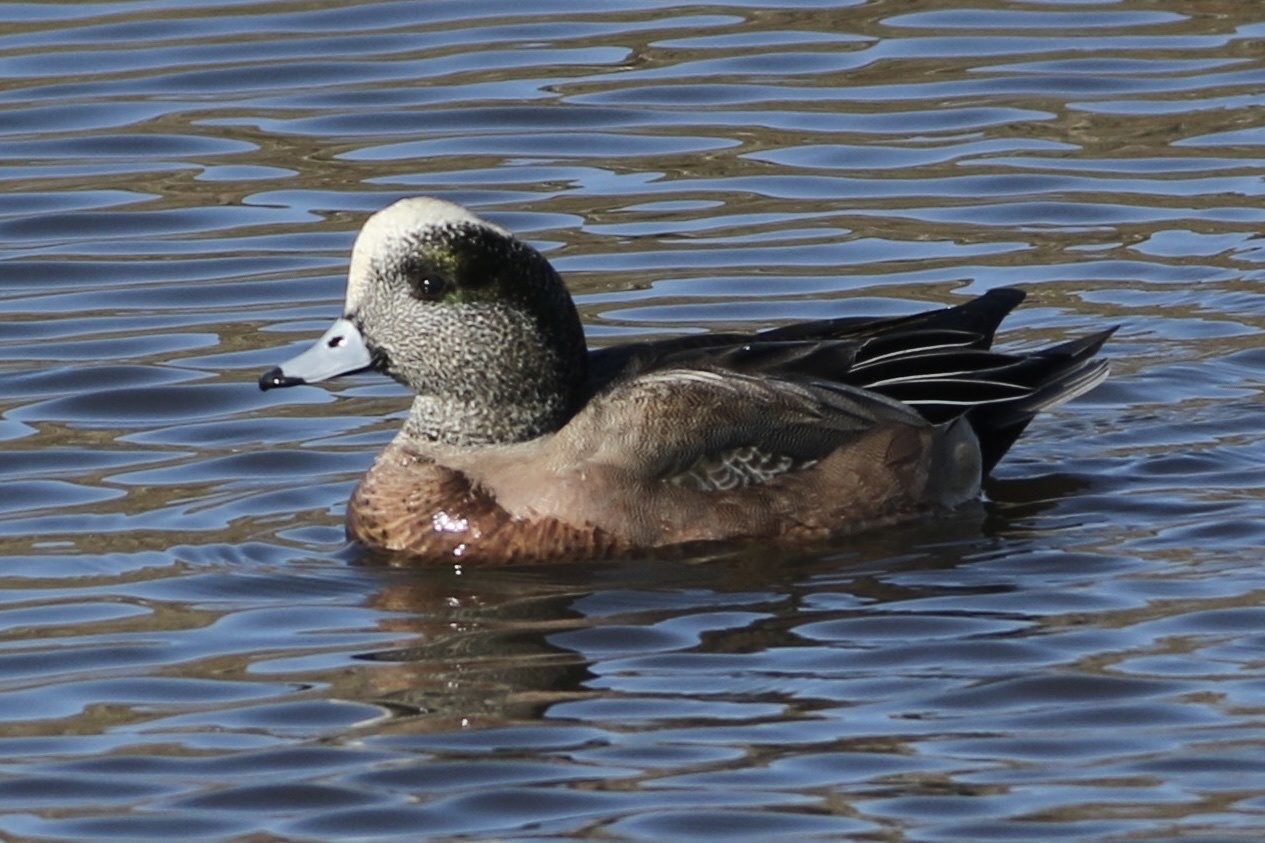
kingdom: Animalia
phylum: Chordata
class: Aves
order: Anseriformes
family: Anatidae
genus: Mareca
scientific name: Mareca americana
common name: American wigeon
